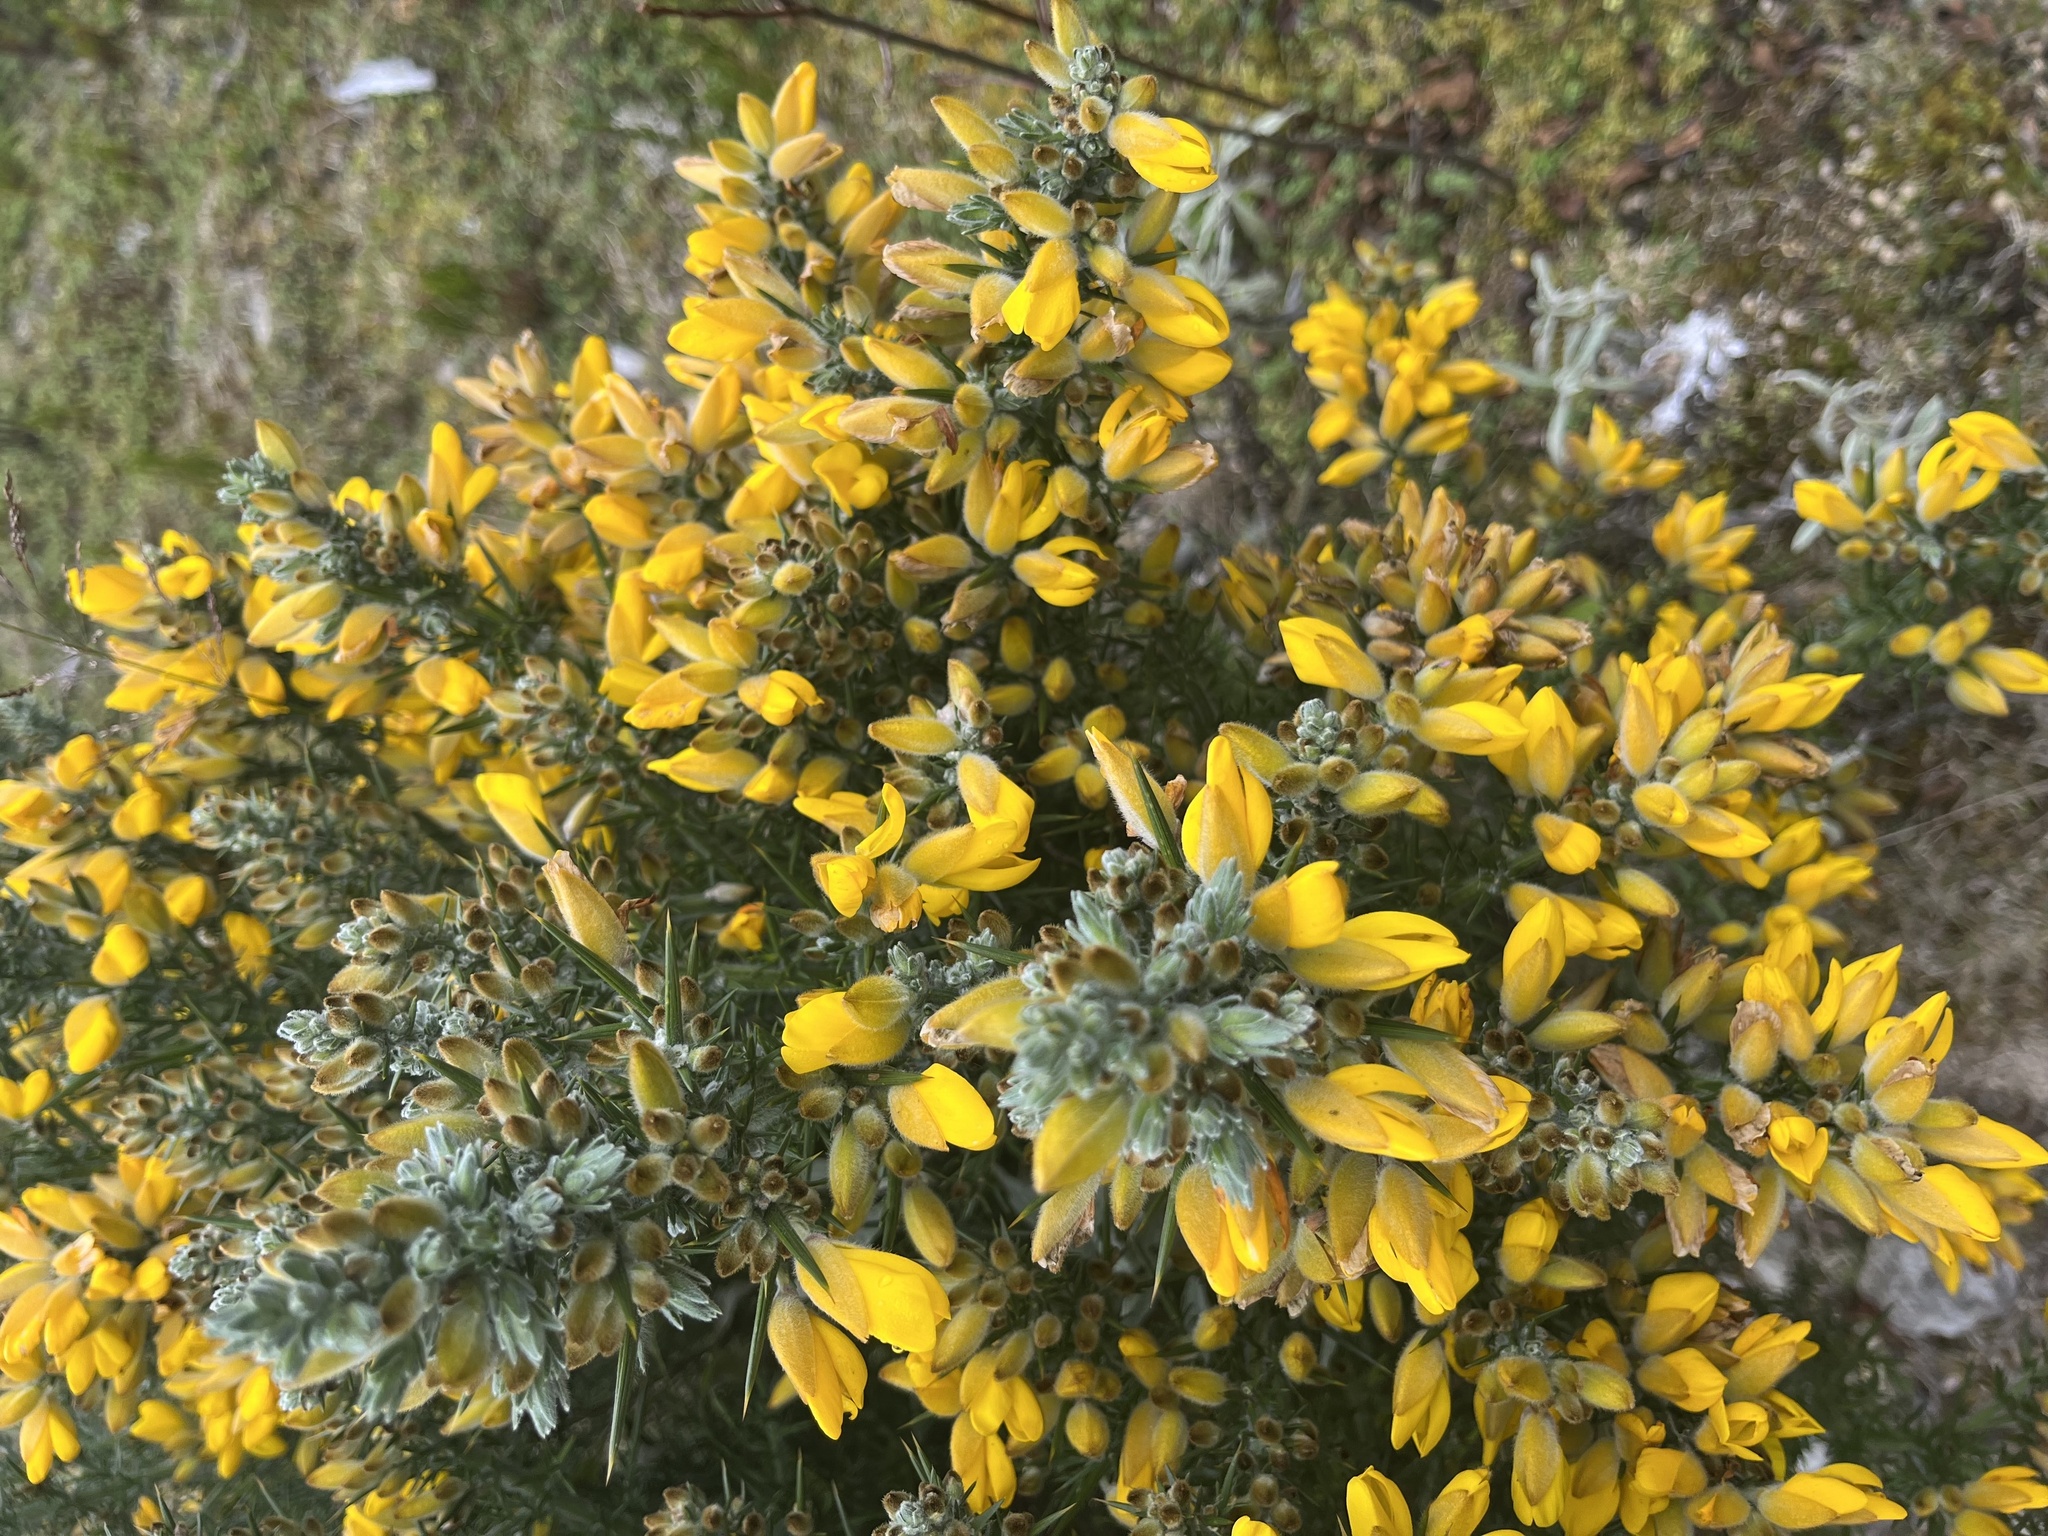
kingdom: Plantae
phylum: Tracheophyta
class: Magnoliopsida
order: Fabales
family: Fabaceae
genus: Ulex
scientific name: Ulex europaeus
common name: Common gorse
